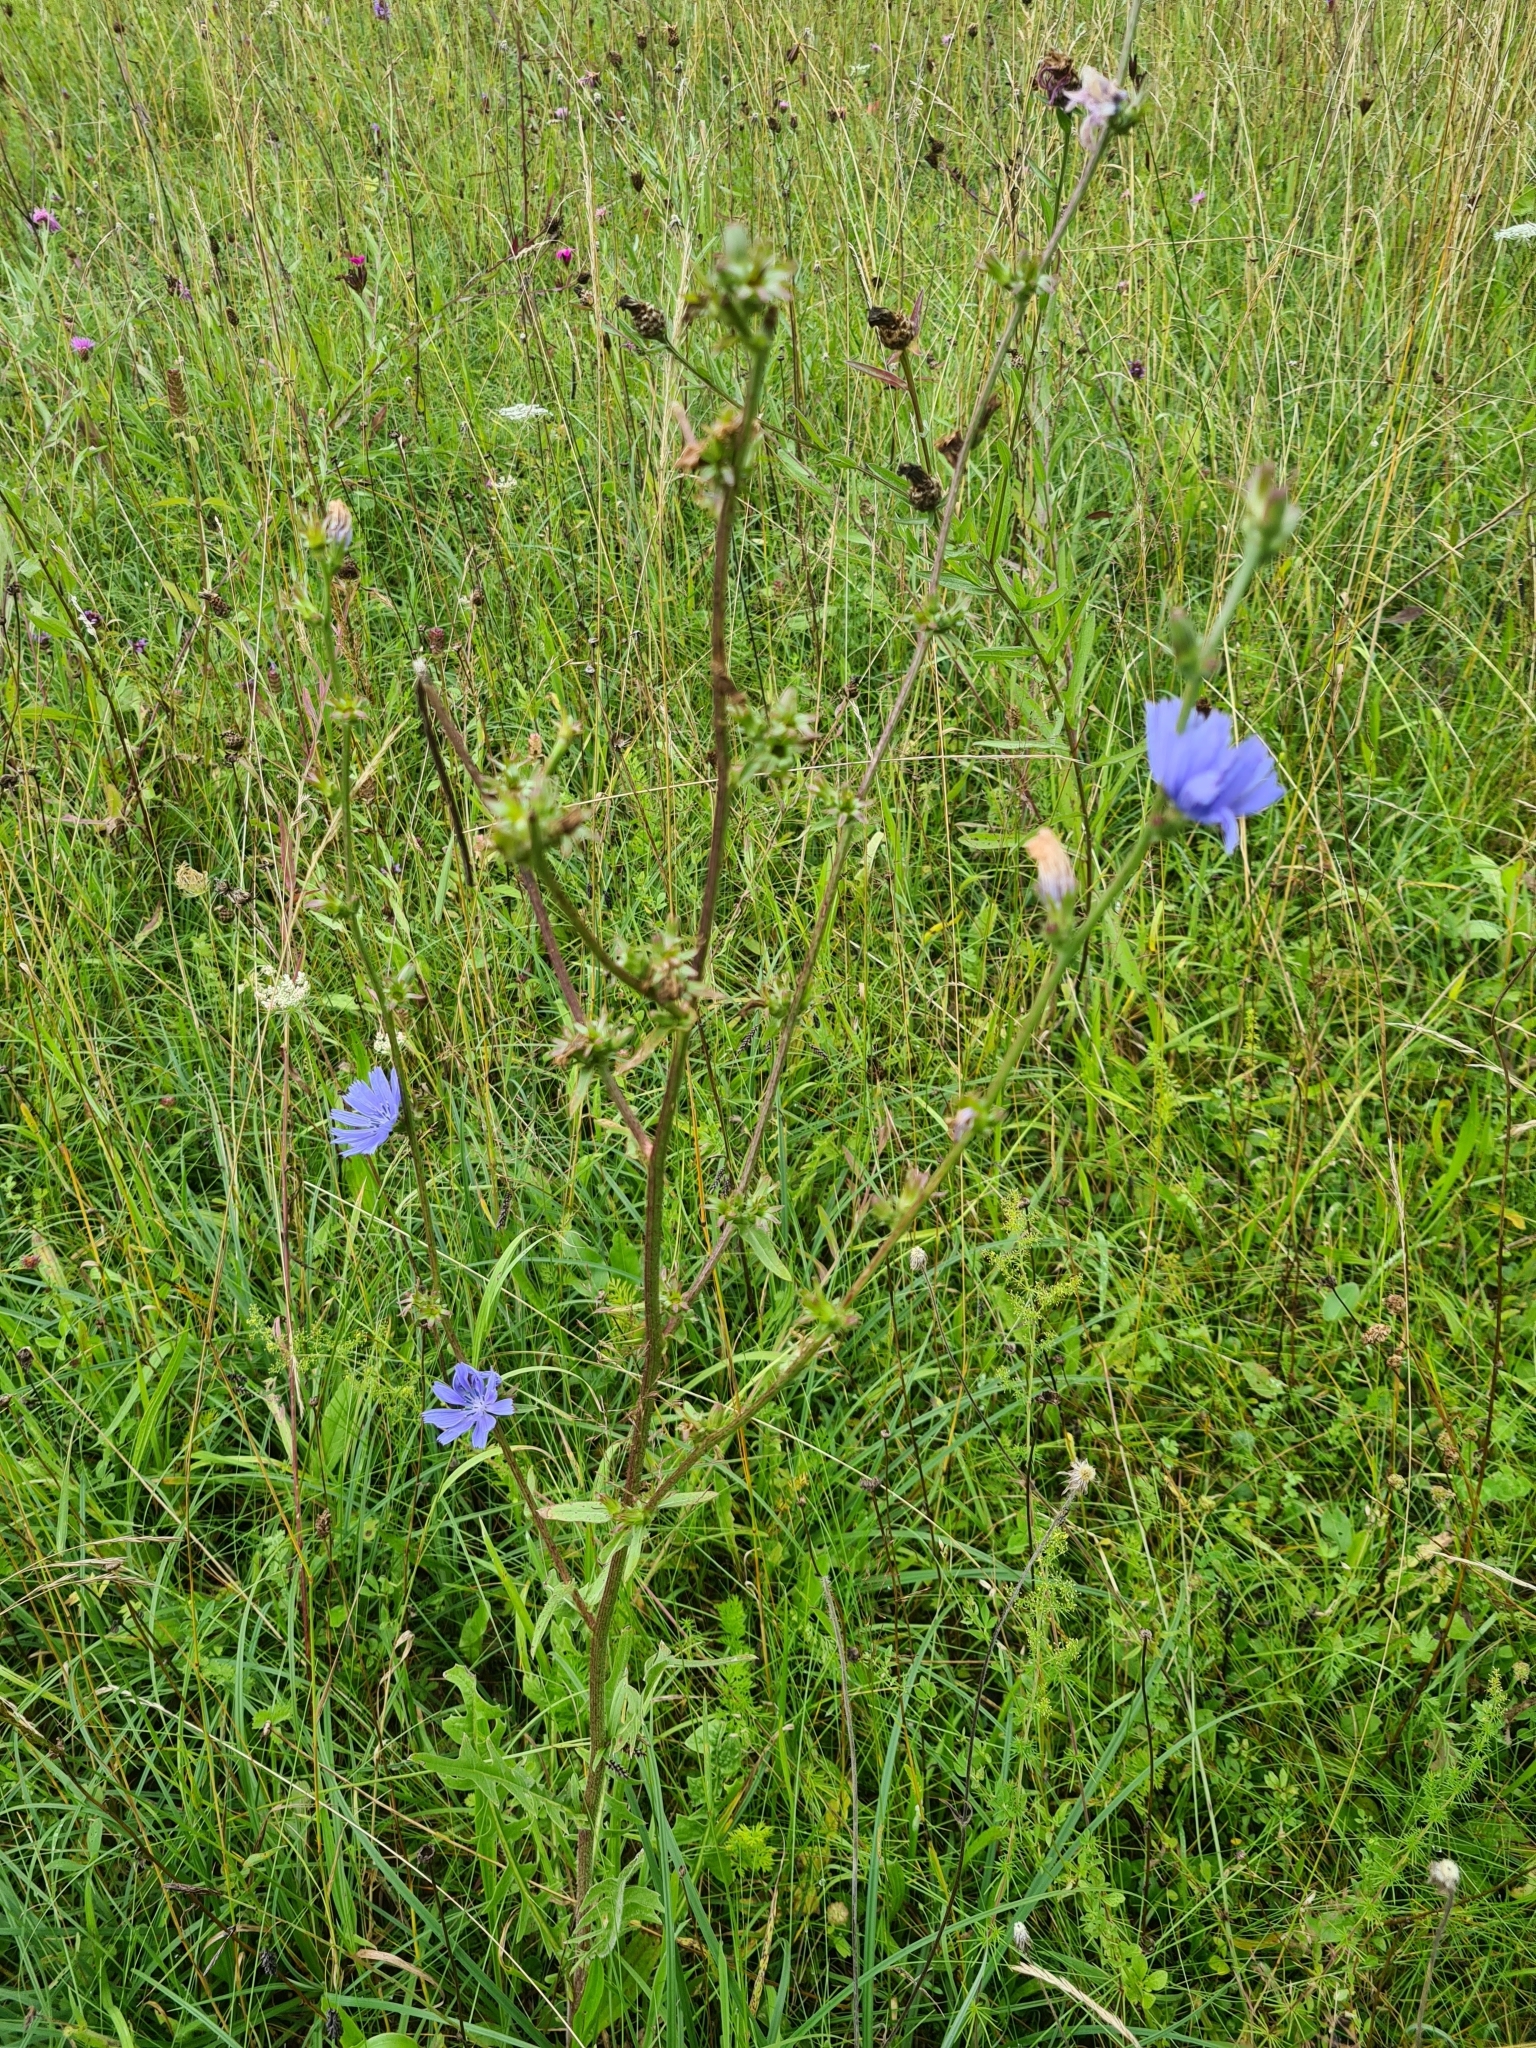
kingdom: Plantae
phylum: Tracheophyta
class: Magnoliopsida
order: Asterales
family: Asteraceae
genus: Cichorium
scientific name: Cichorium intybus
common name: Chicory
